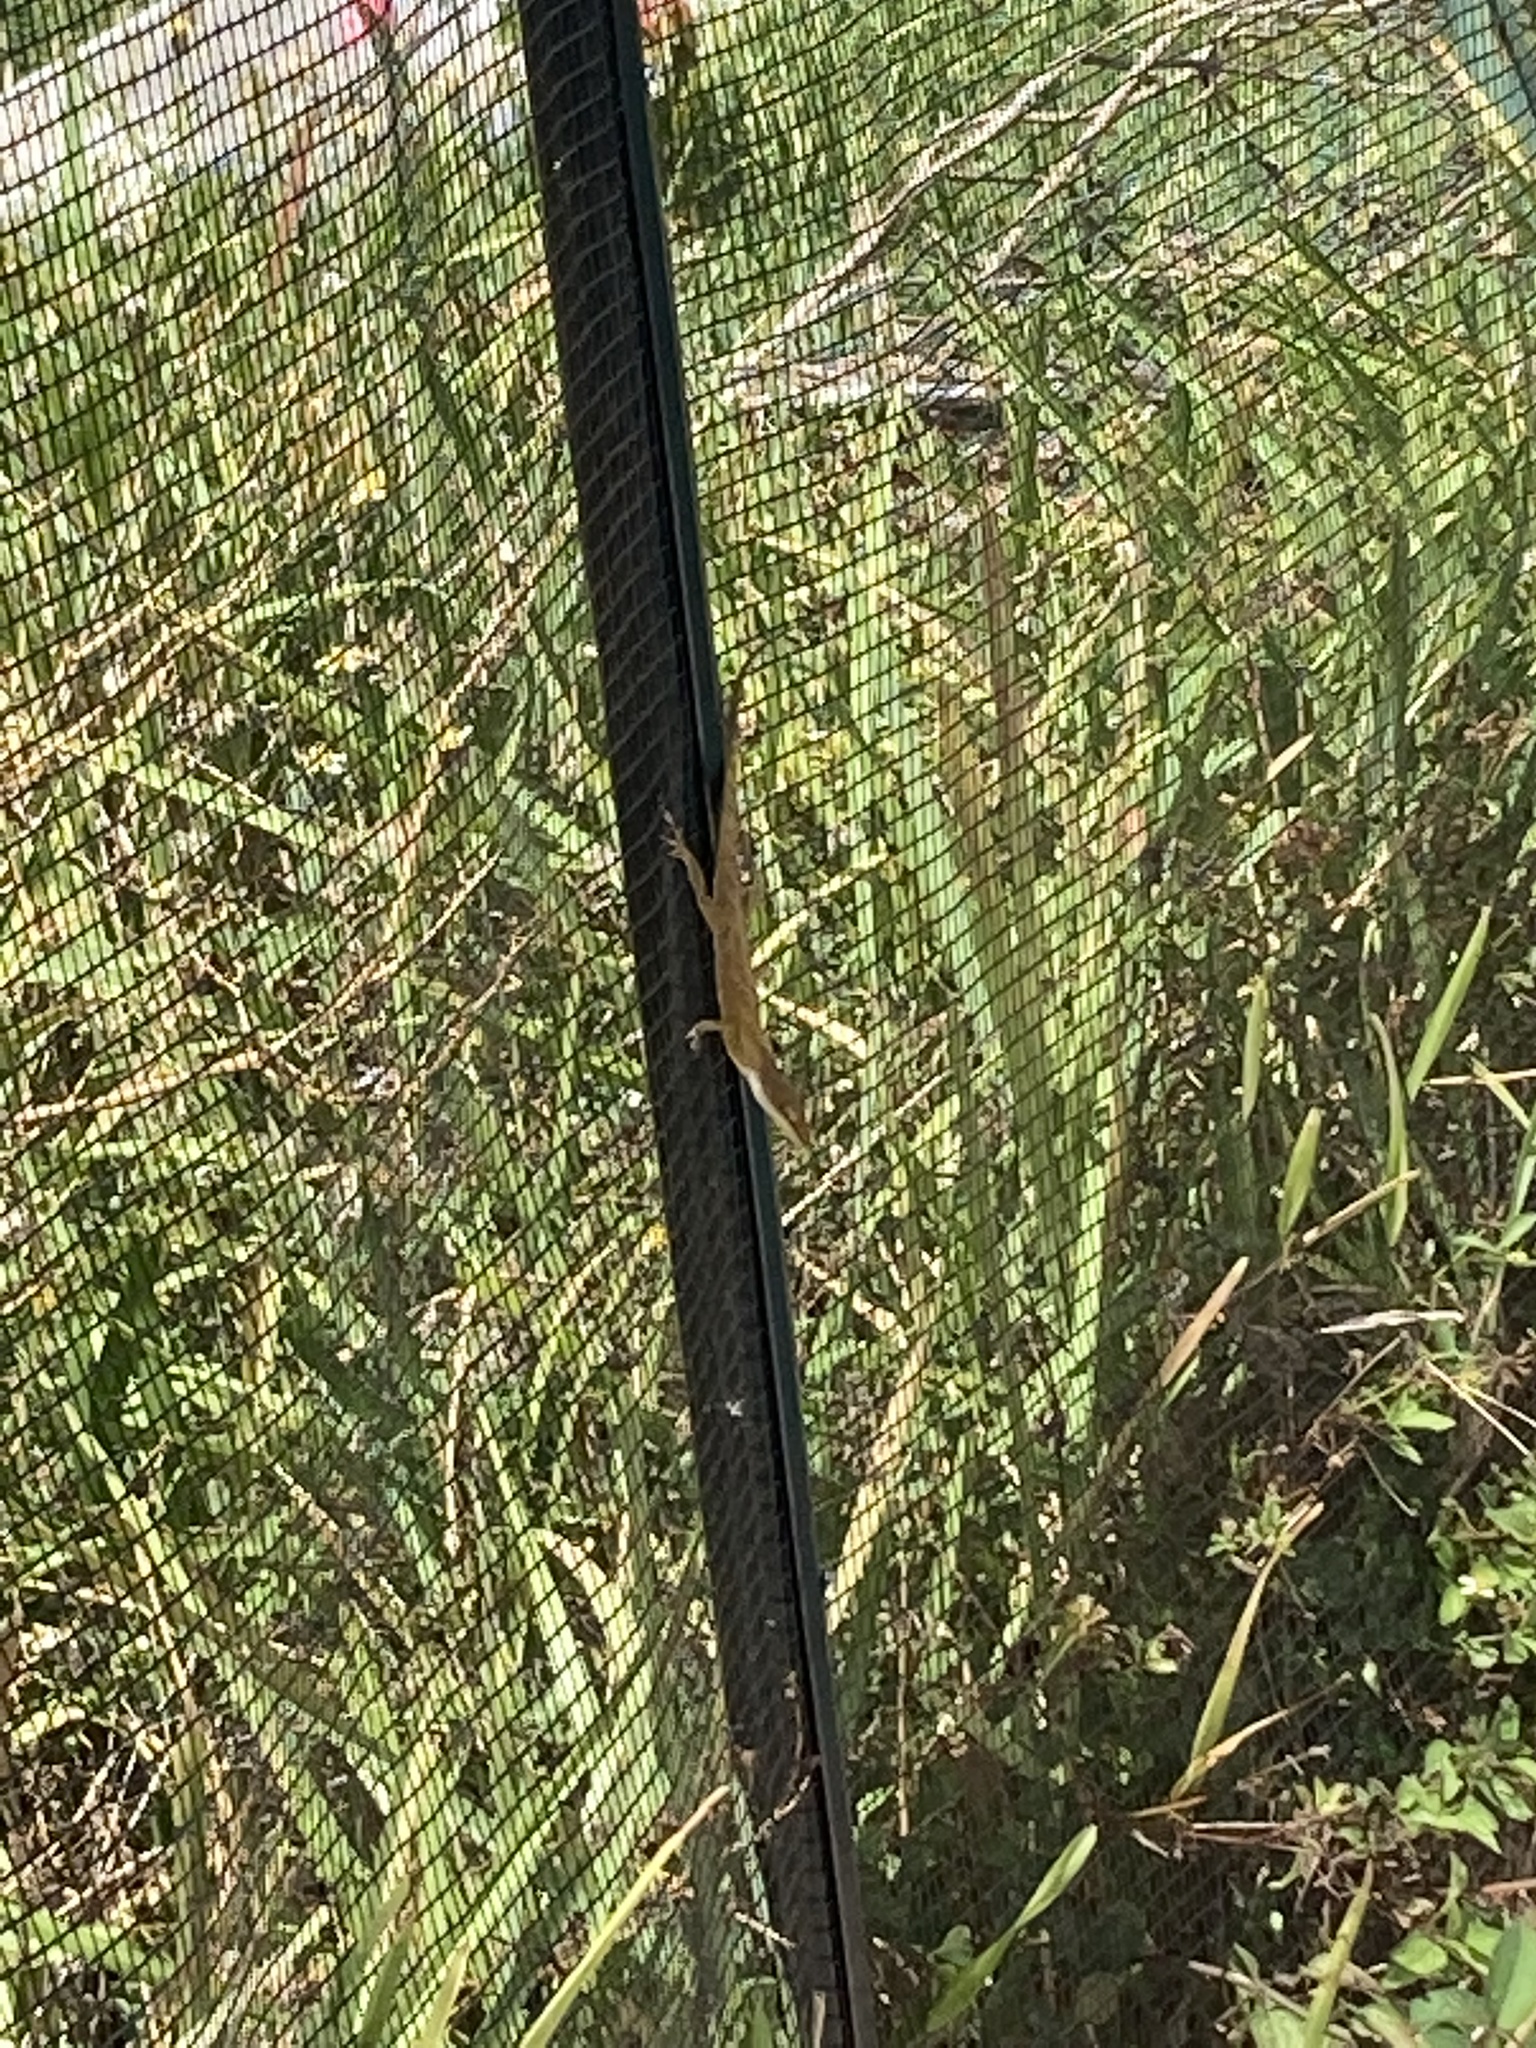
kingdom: Animalia
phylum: Chordata
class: Squamata
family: Dactyloidae
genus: Anolis
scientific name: Anolis carolinensis
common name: Green anole
